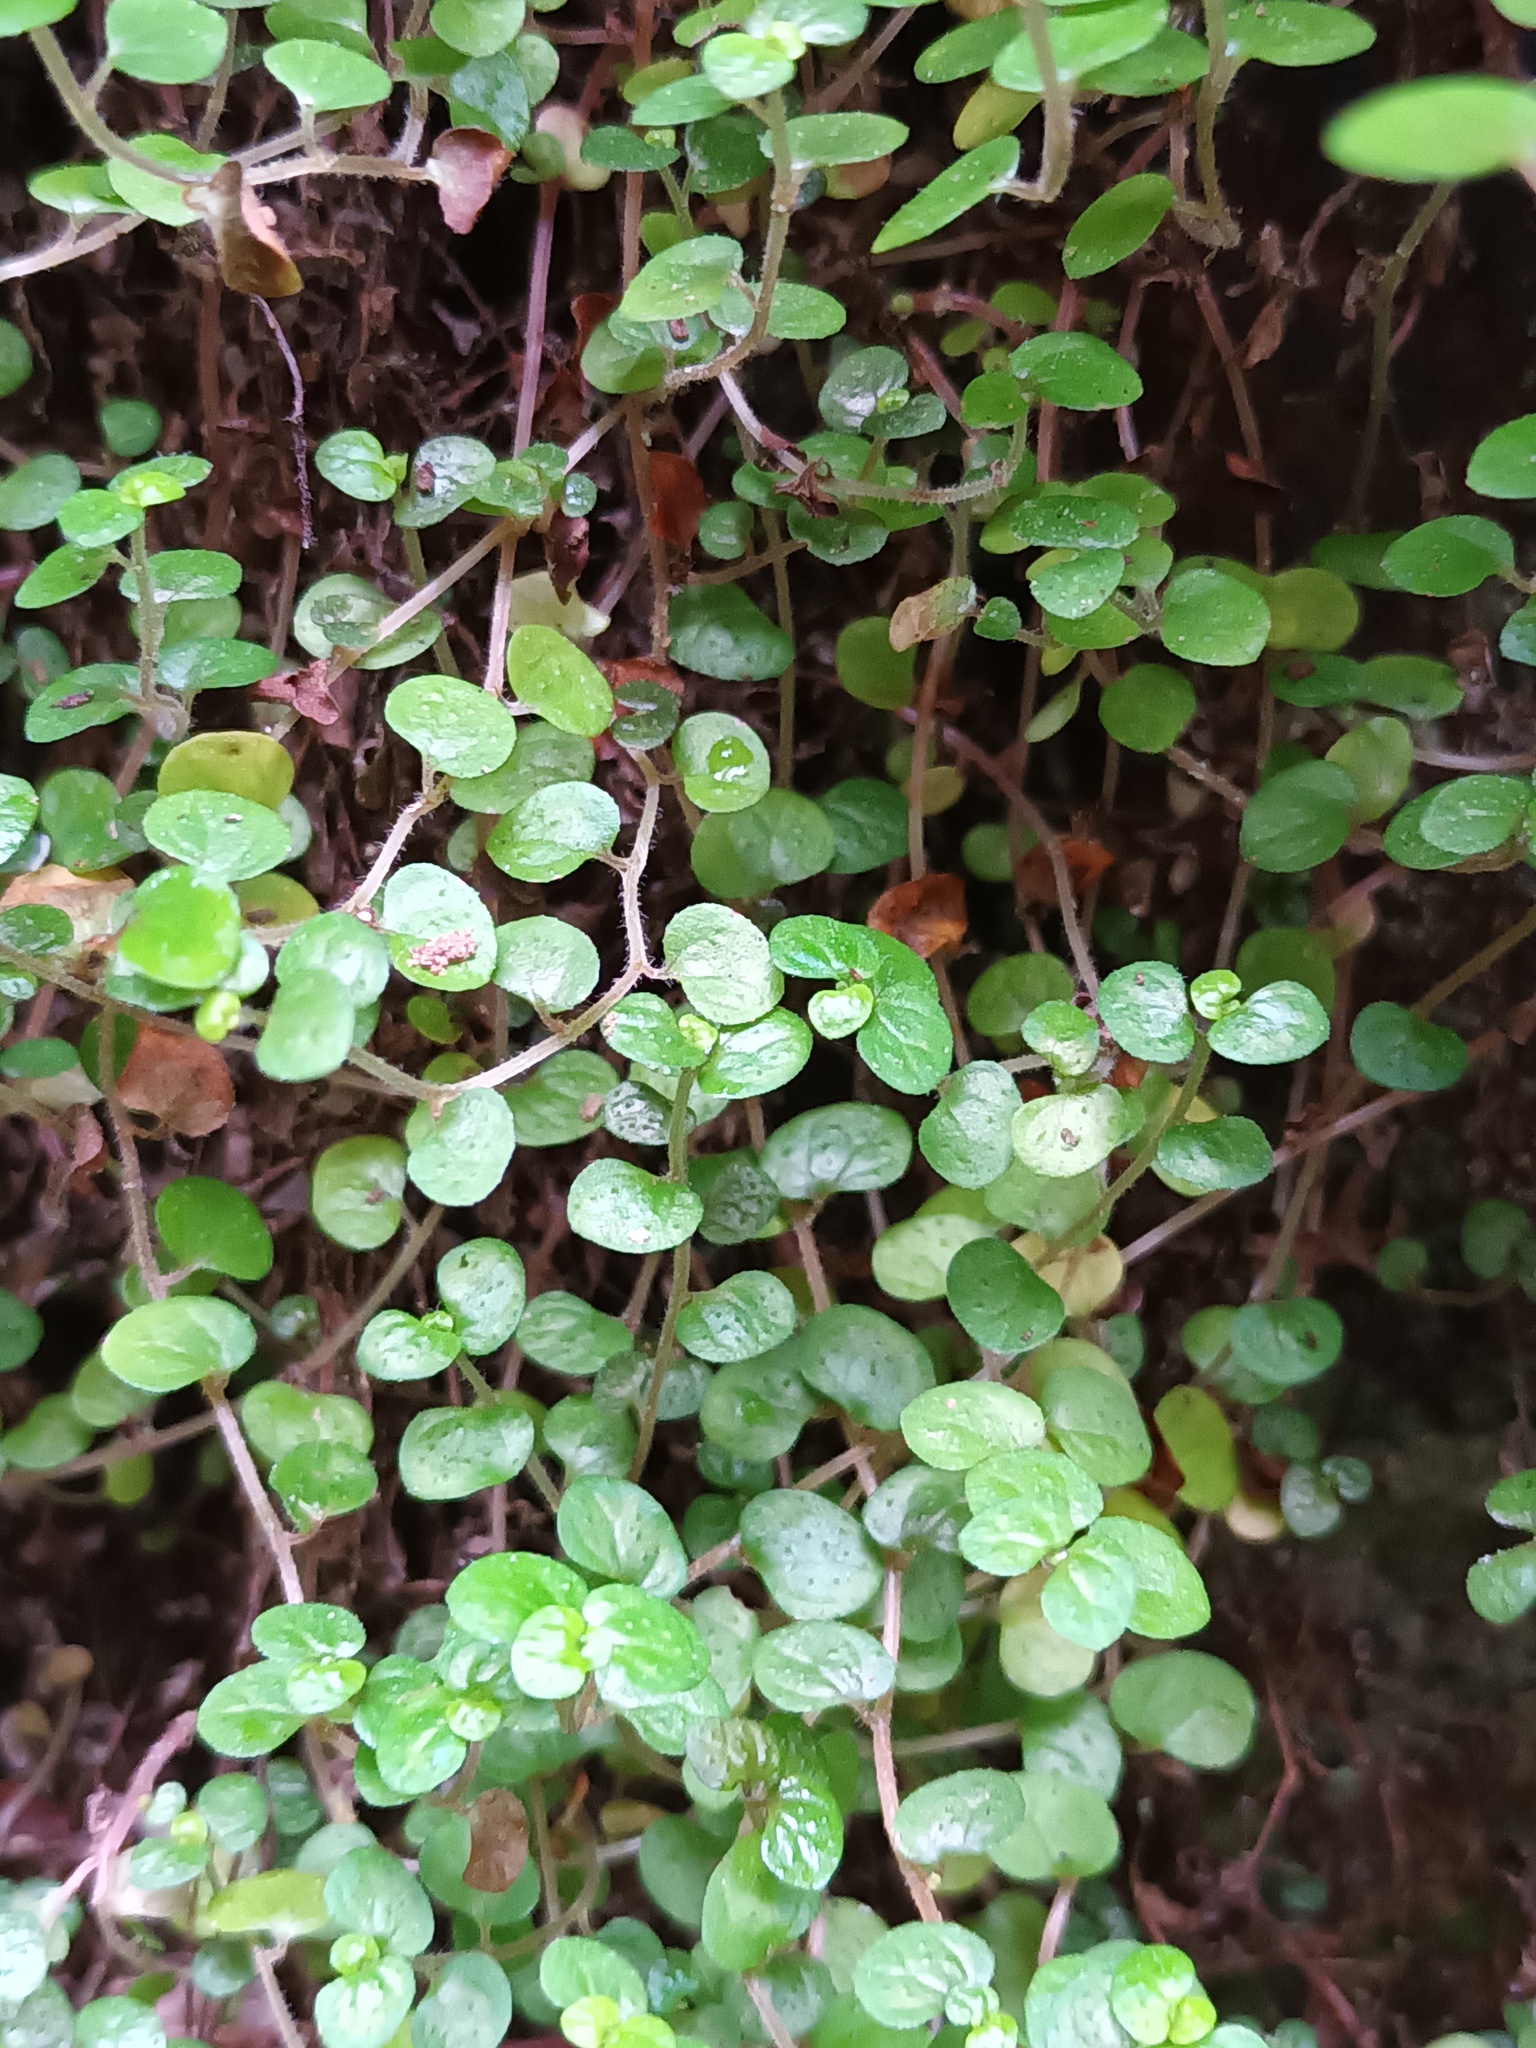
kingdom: Plantae
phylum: Tracheophyta
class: Magnoliopsida
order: Rosales
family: Urticaceae
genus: Soleirolia
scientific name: Soleirolia soleirolii
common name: Mind-your-own-business
